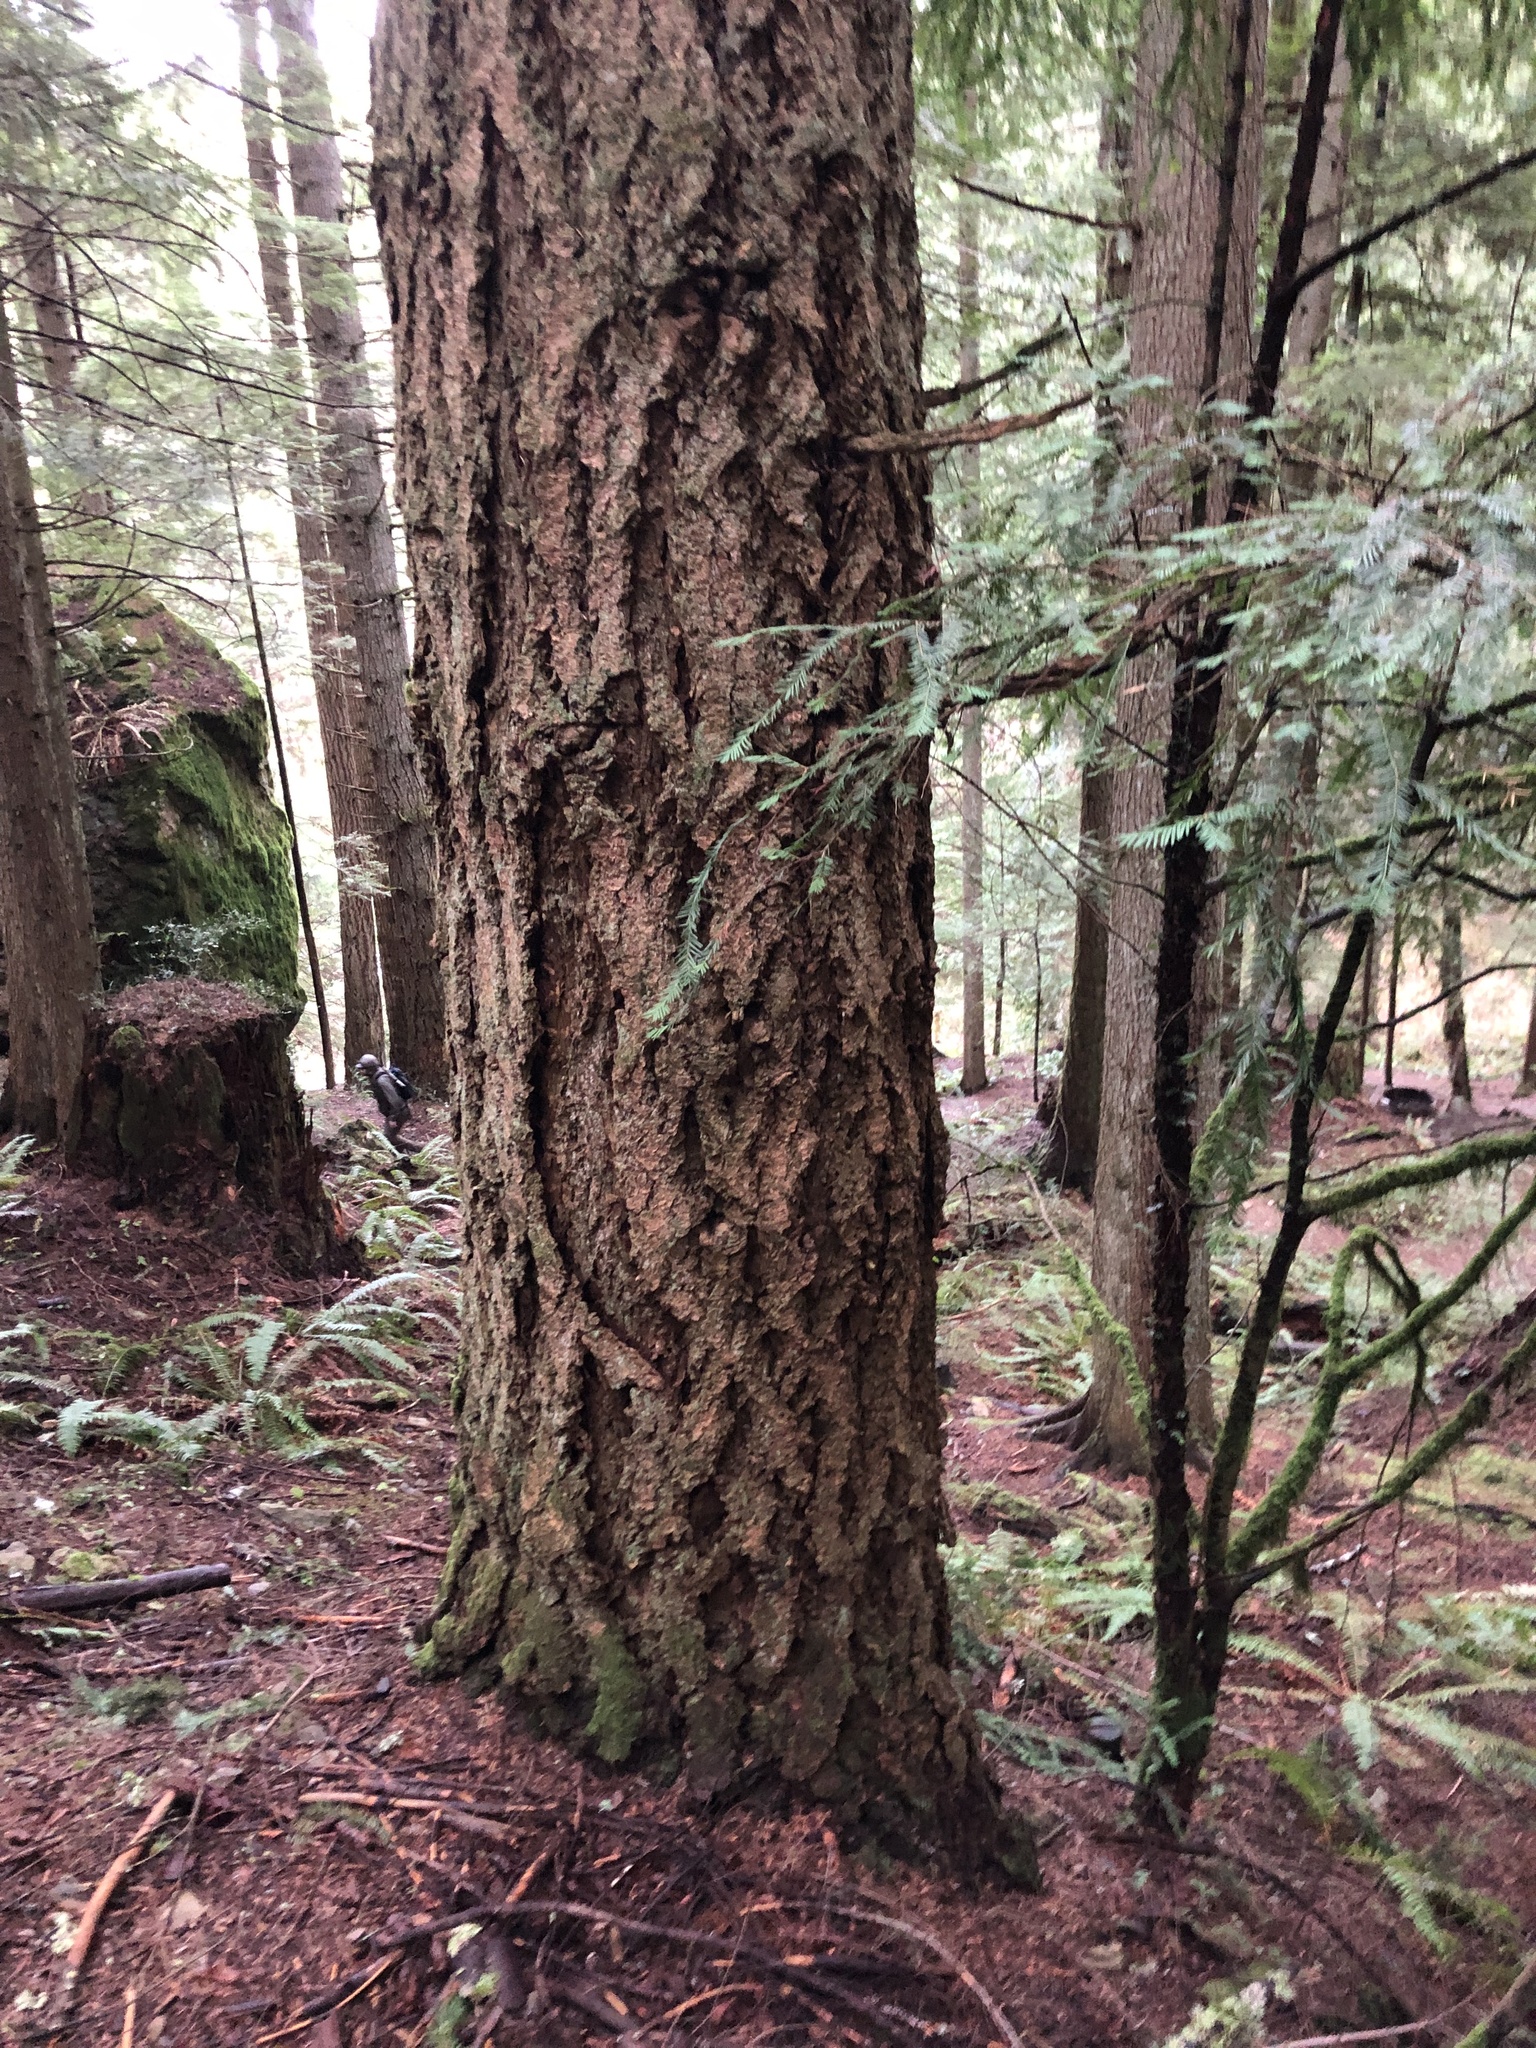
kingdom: Plantae
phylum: Tracheophyta
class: Pinopsida
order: Pinales
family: Pinaceae
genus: Pseudotsuga
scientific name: Pseudotsuga menziesii
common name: Douglas fir
